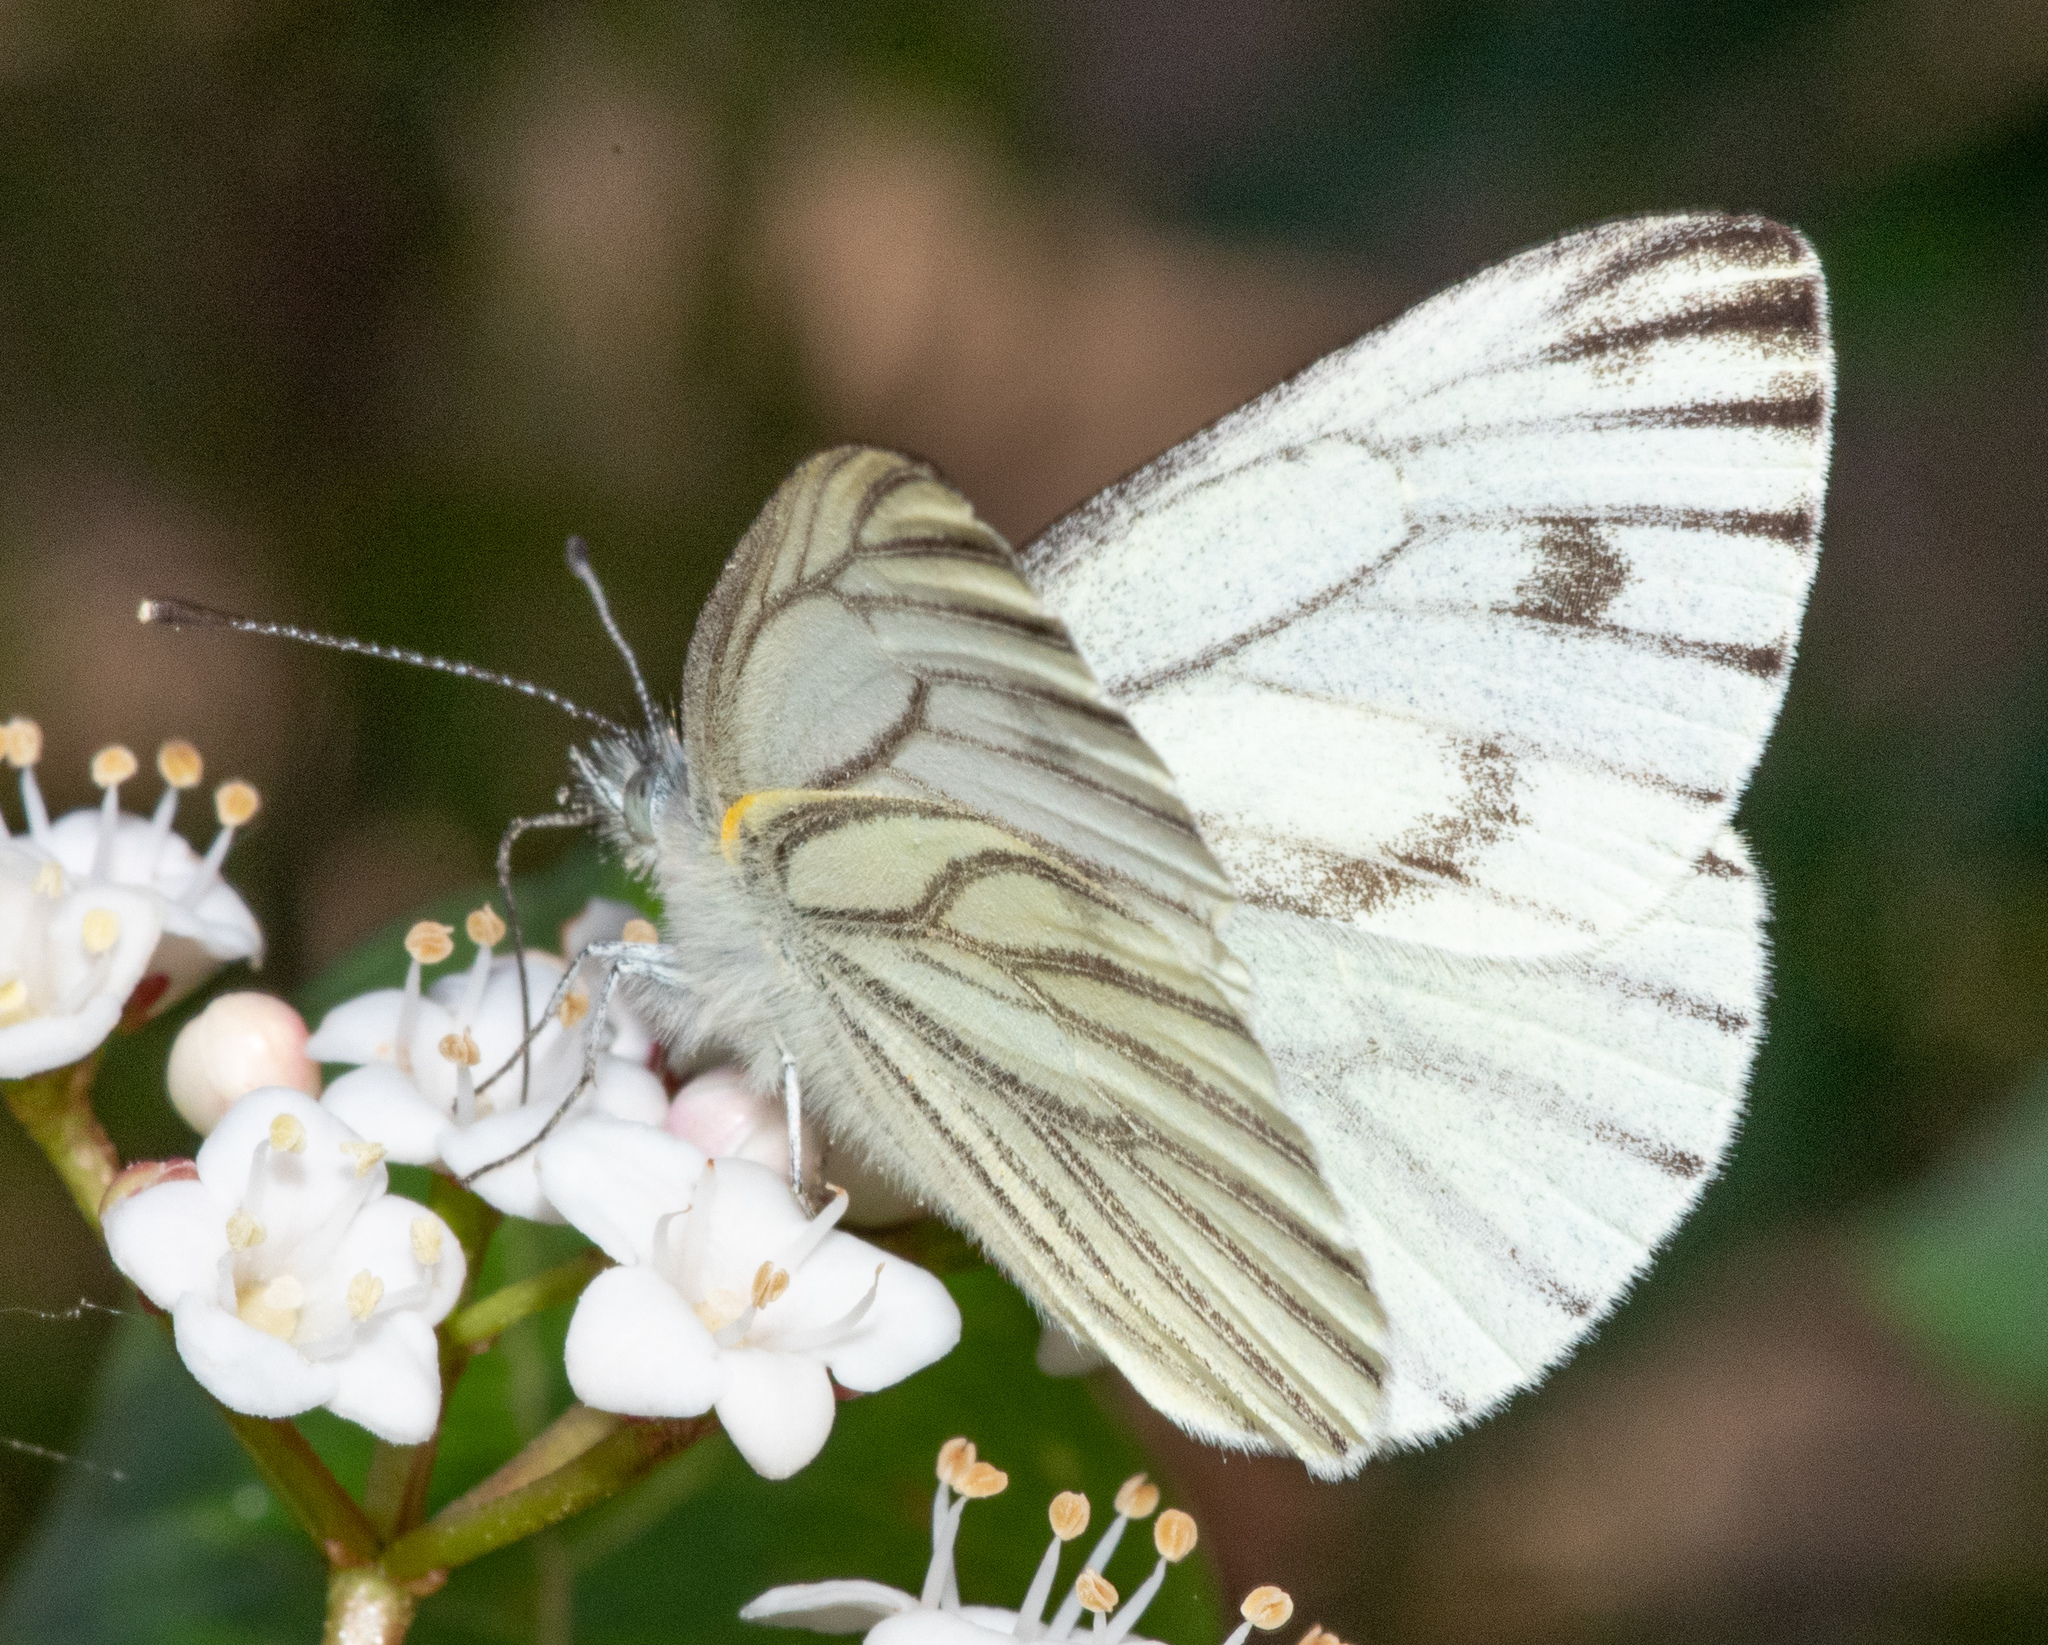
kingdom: Animalia
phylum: Arthropoda
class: Insecta
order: Lepidoptera
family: Pieridae
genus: Pieris
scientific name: Pieris marginalis
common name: Margined white
